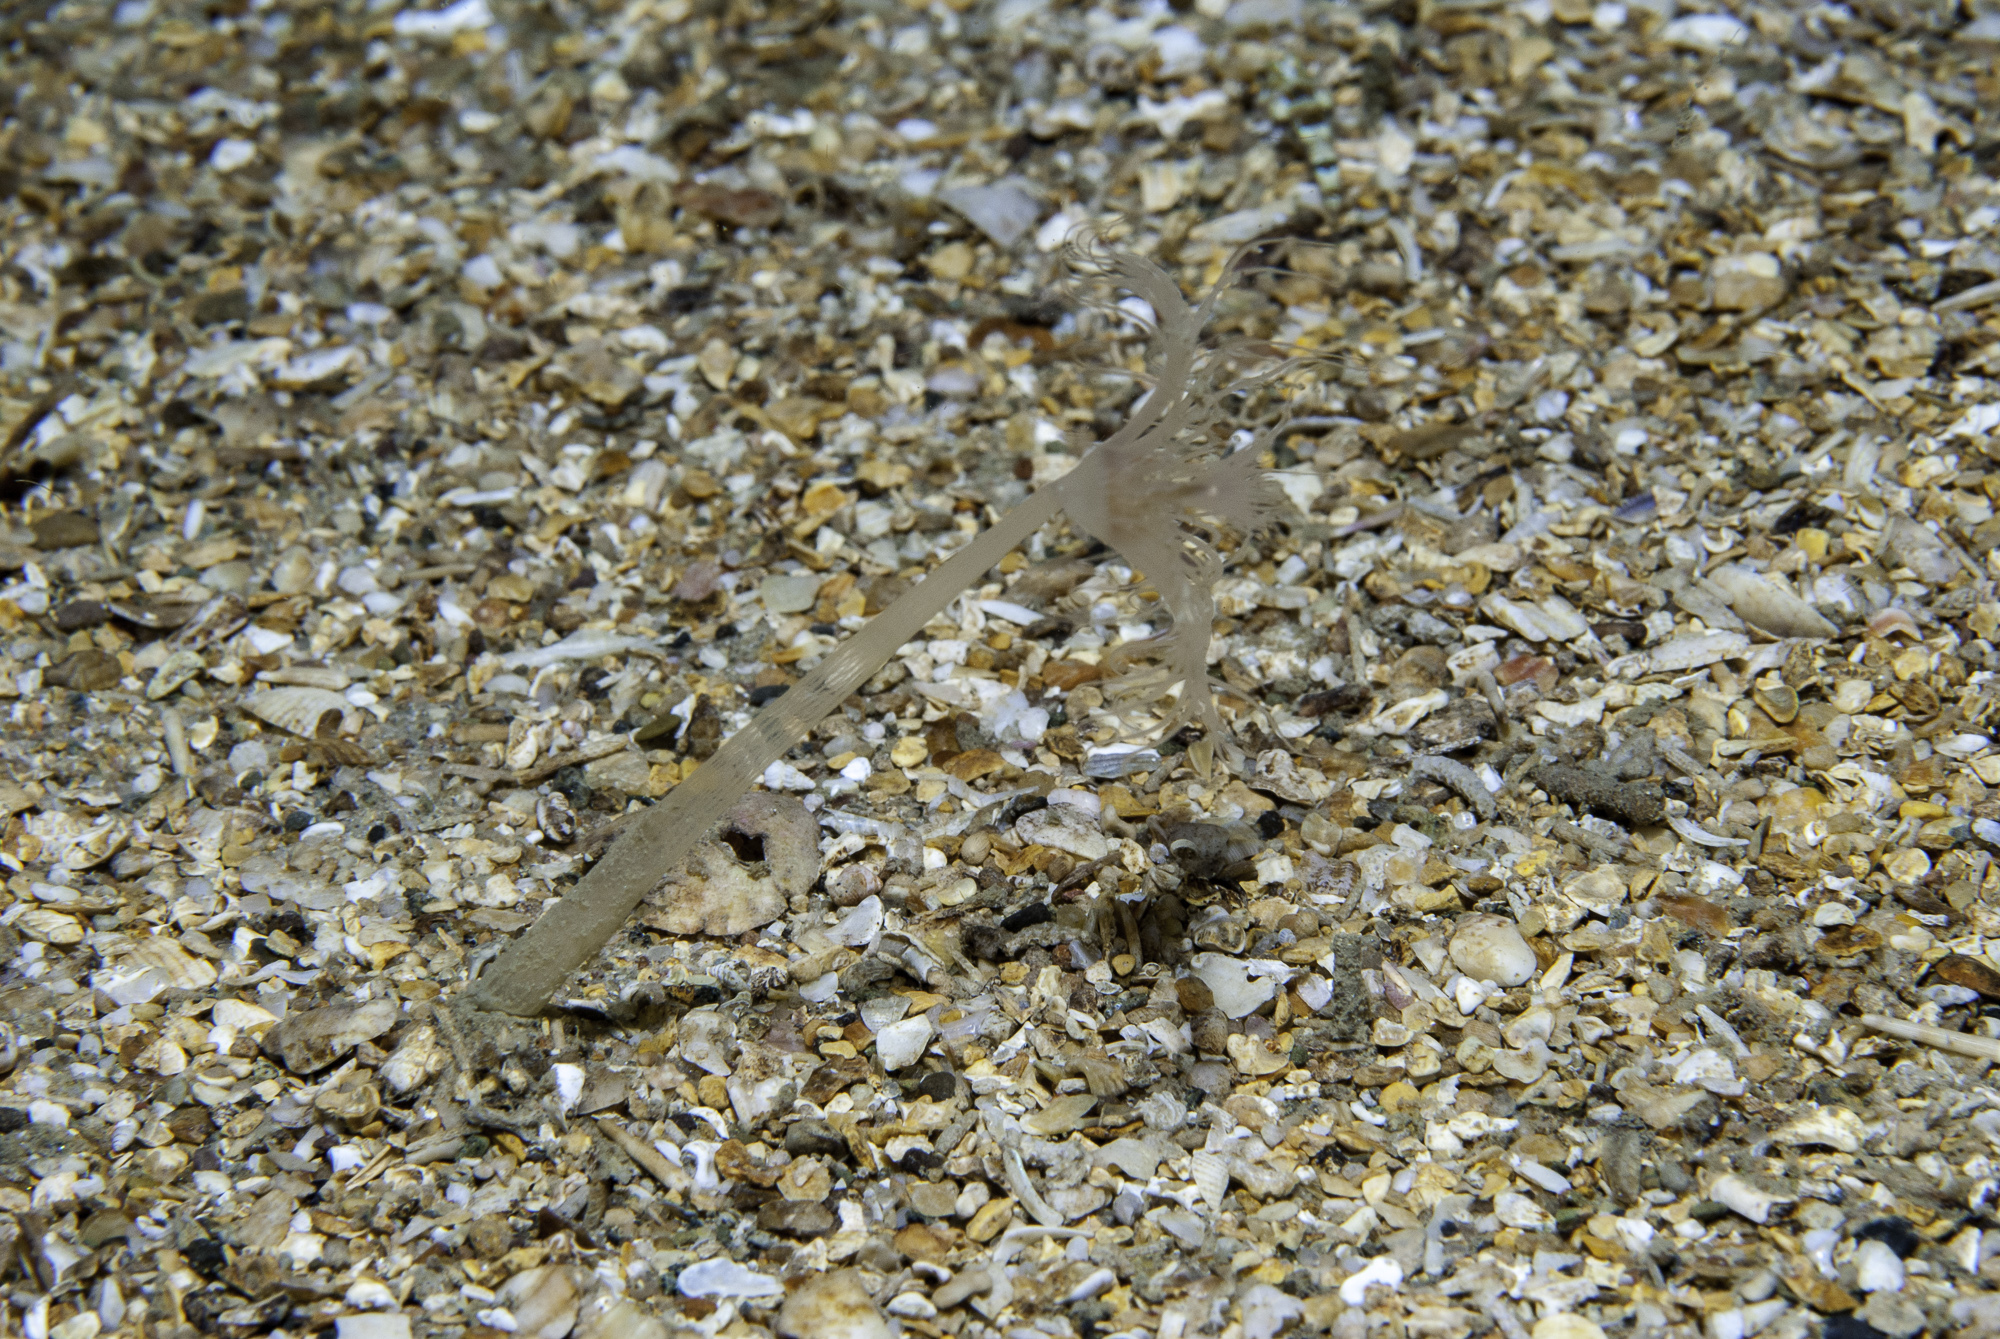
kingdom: Animalia
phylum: Cnidaria
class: Hydrozoa
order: Anthoathecata
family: Corymorphidae
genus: Corymorpha
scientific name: Corymorpha nutans
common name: Nodding hydroid
